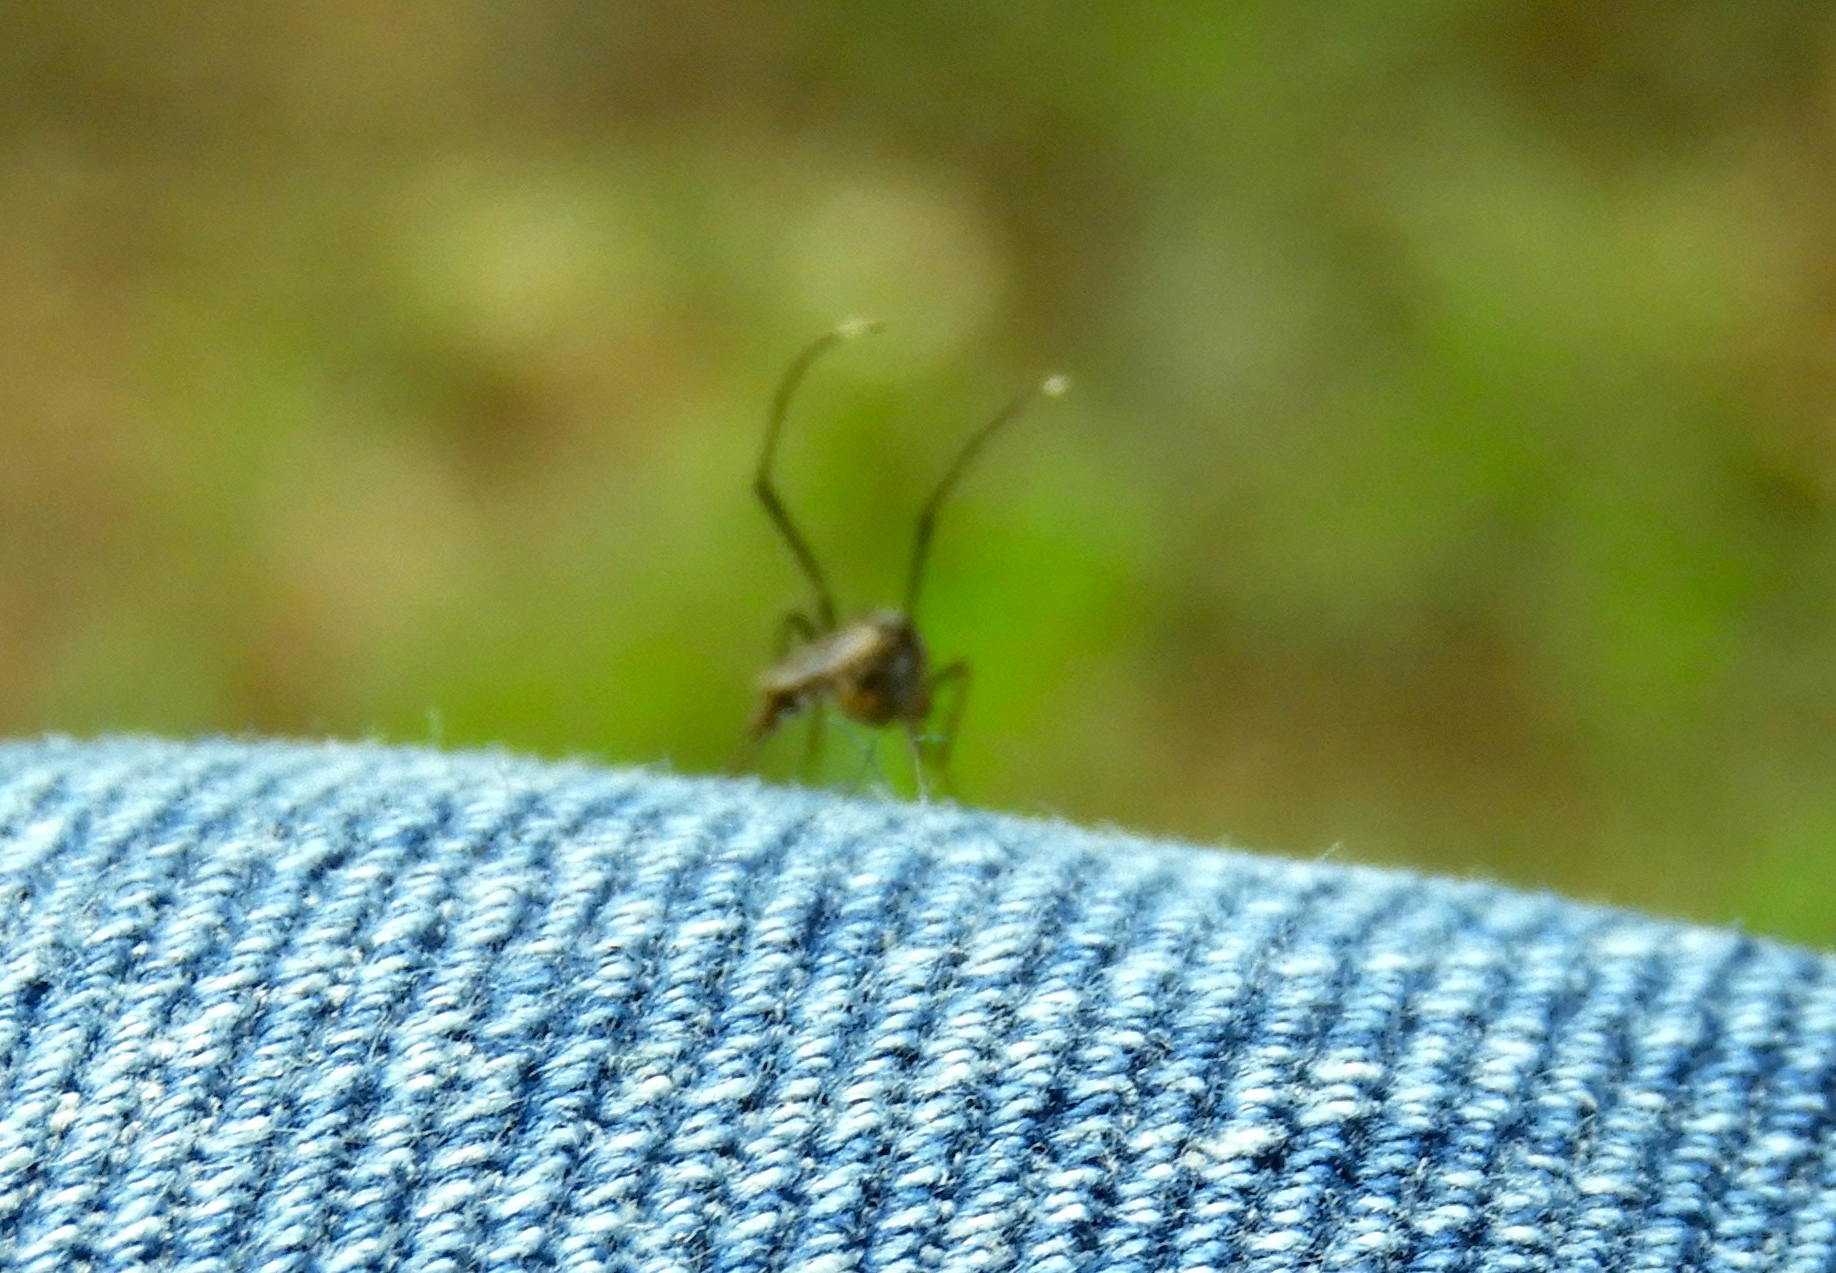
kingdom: Animalia
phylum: Arthropoda
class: Insecta
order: Diptera
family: Culicidae
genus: Psorophora
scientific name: Psorophora ferox
